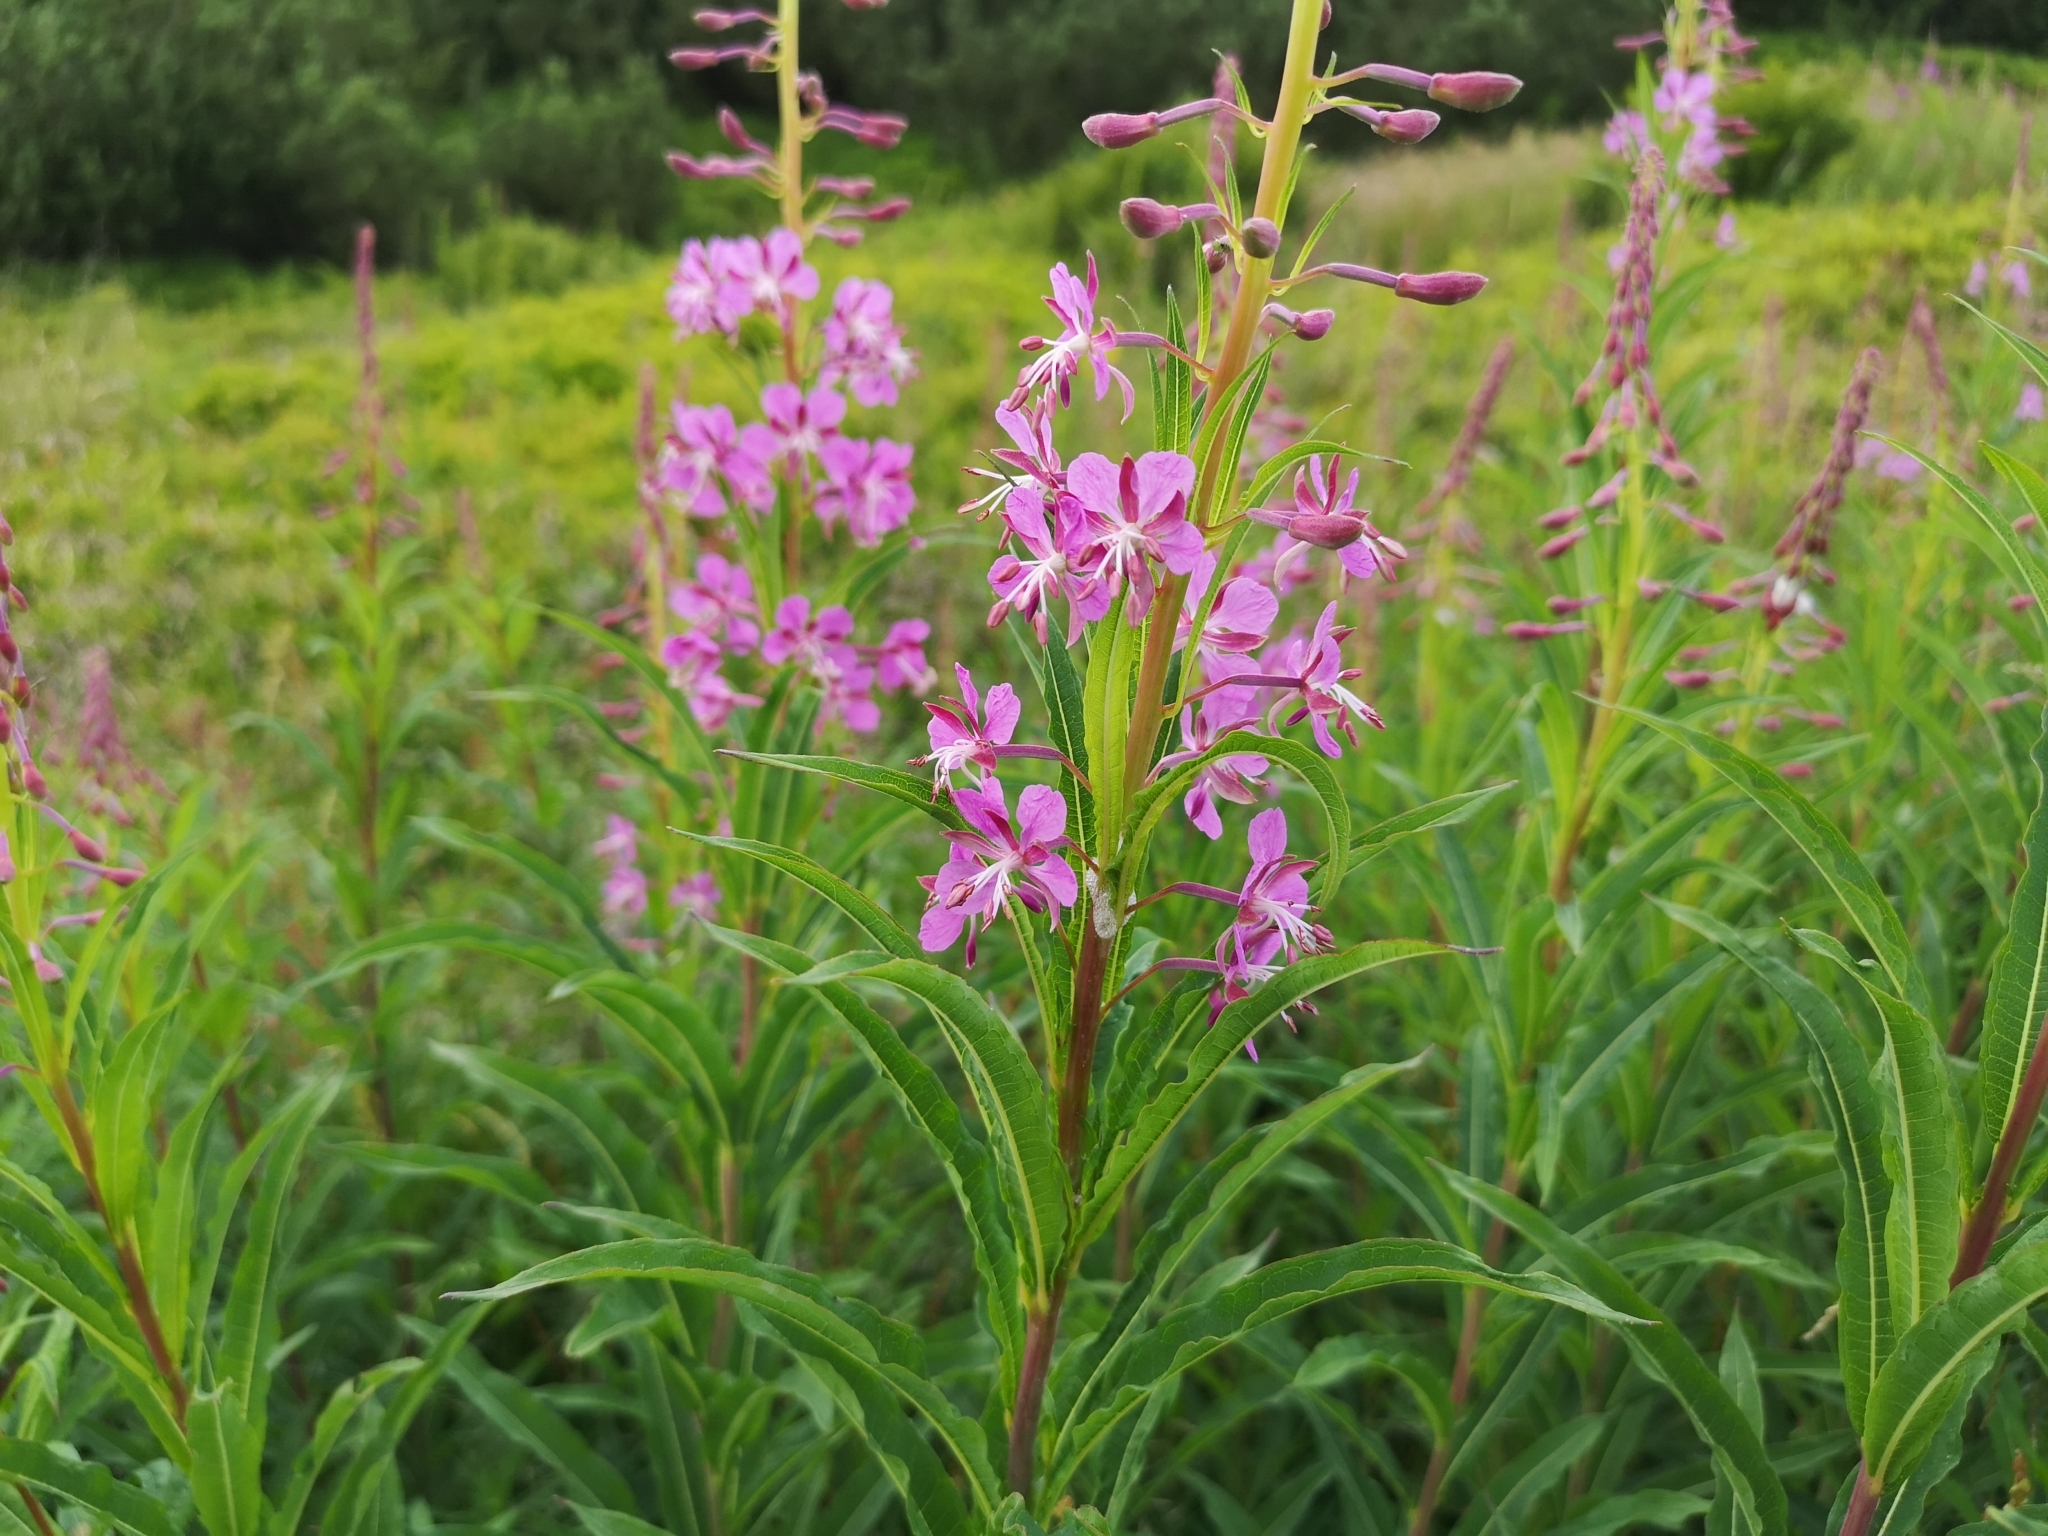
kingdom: Plantae
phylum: Tracheophyta
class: Magnoliopsida
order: Myrtales
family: Onagraceae
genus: Chamaenerion
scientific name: Chamaenerion angustifolium
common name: Fireweed
